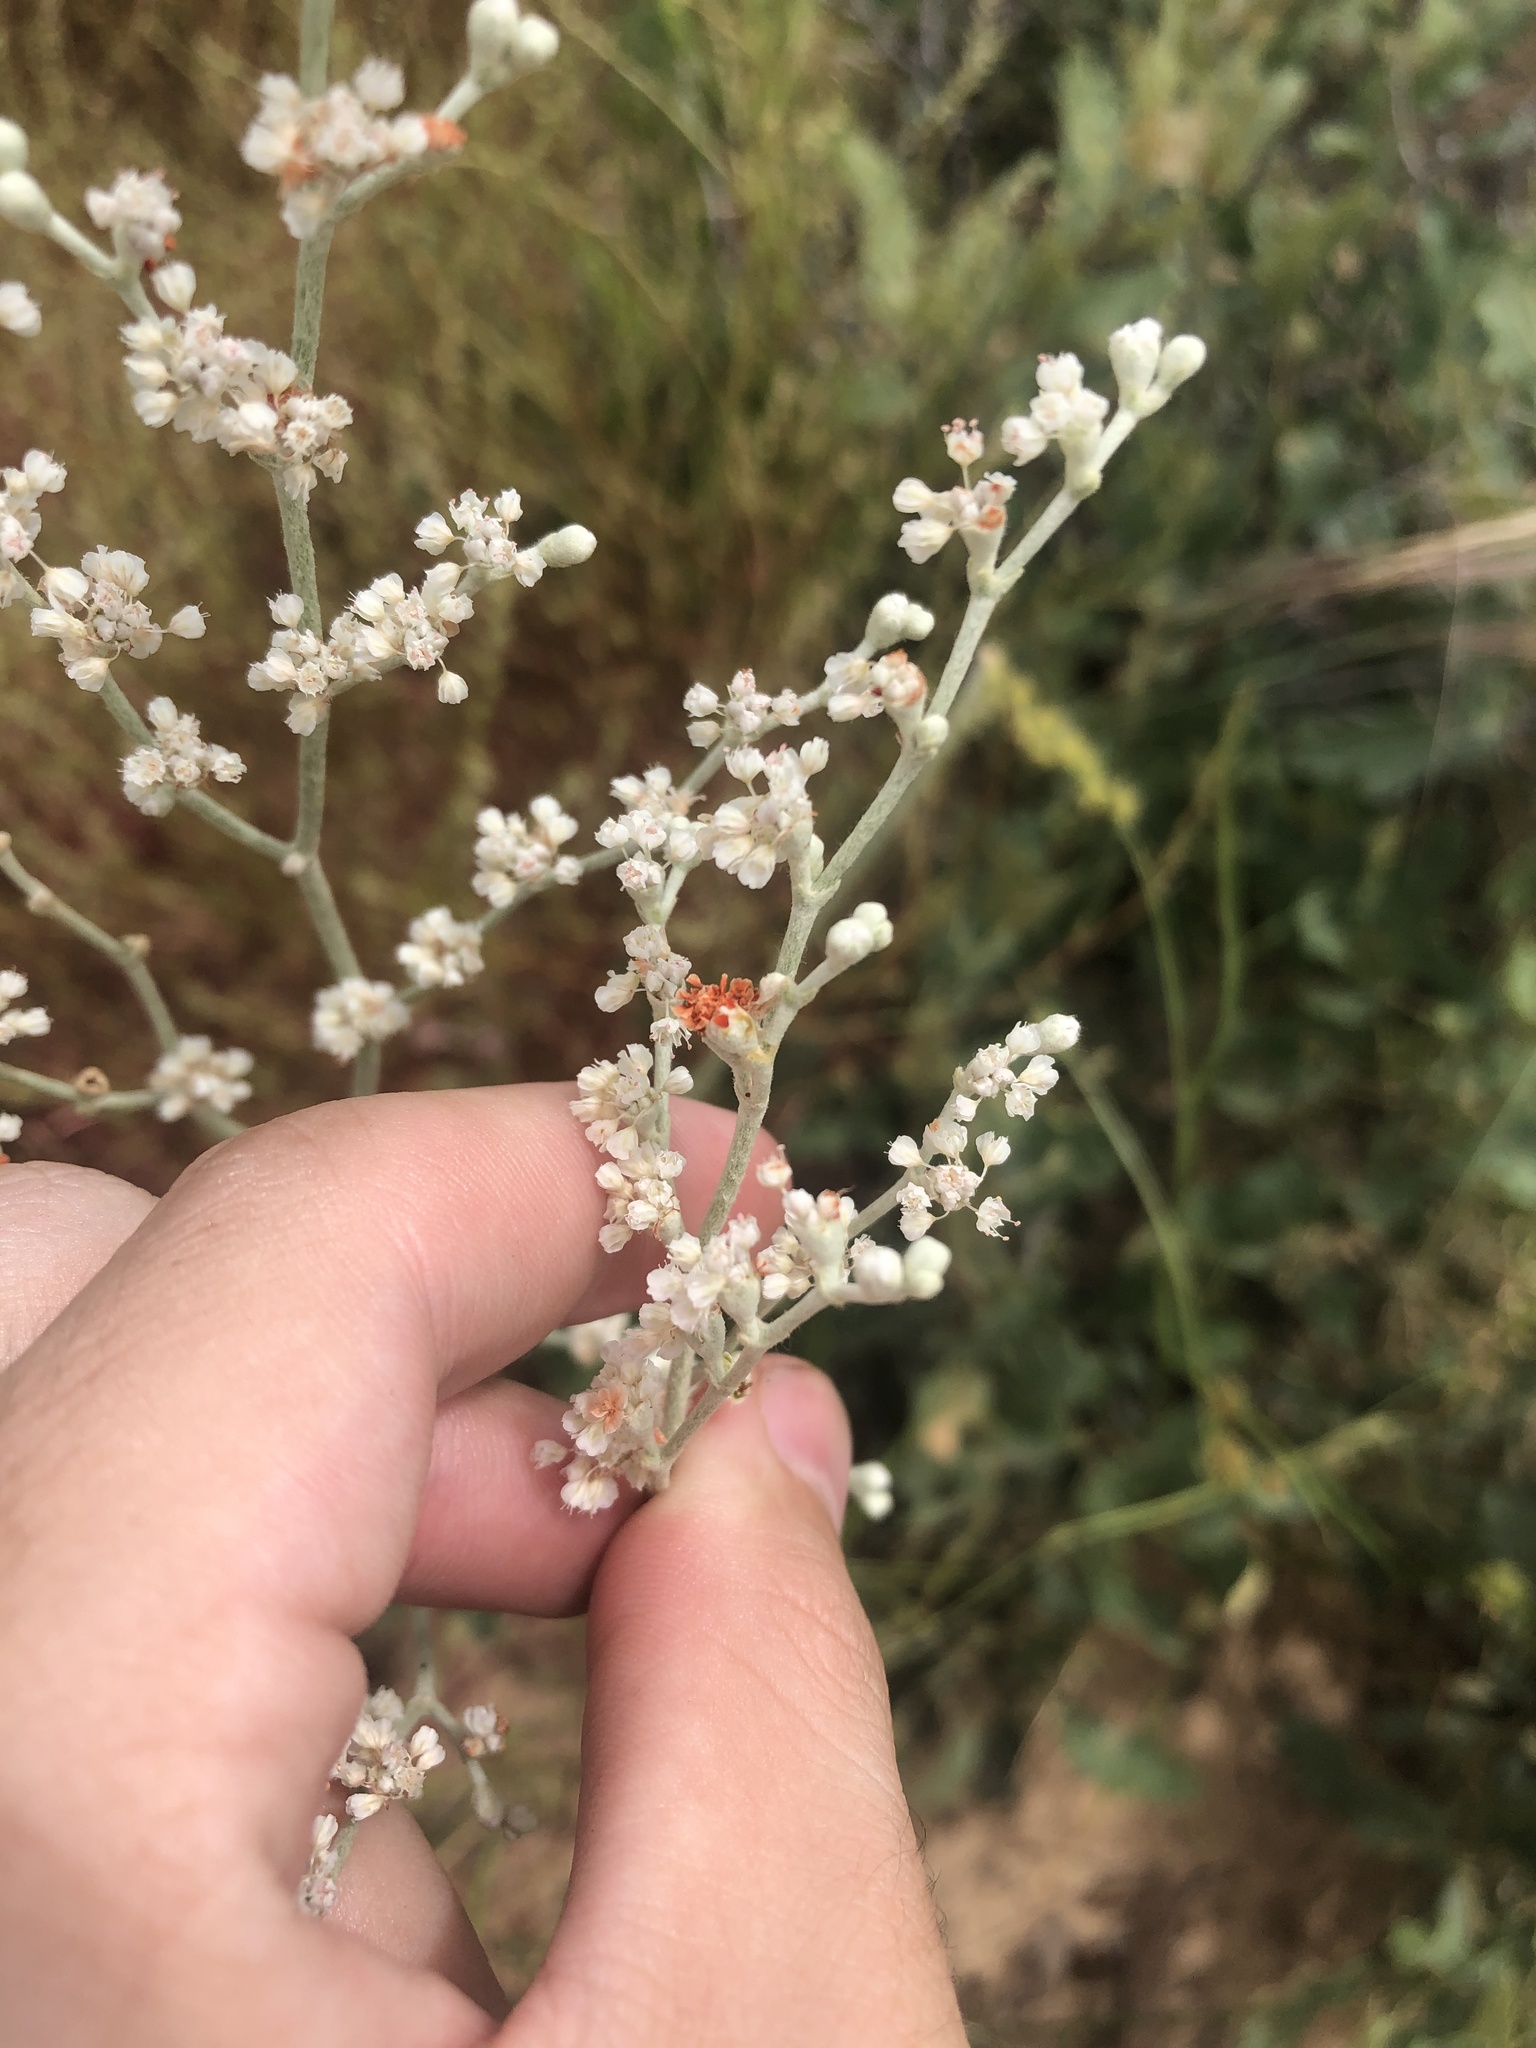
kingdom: Plantae
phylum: Tracheophyta
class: Magnoliopsida
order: Caryophyllales
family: Polygonaceae
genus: Eriogonum
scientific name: Eriogonum annuum
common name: Annual wild buckwheat
